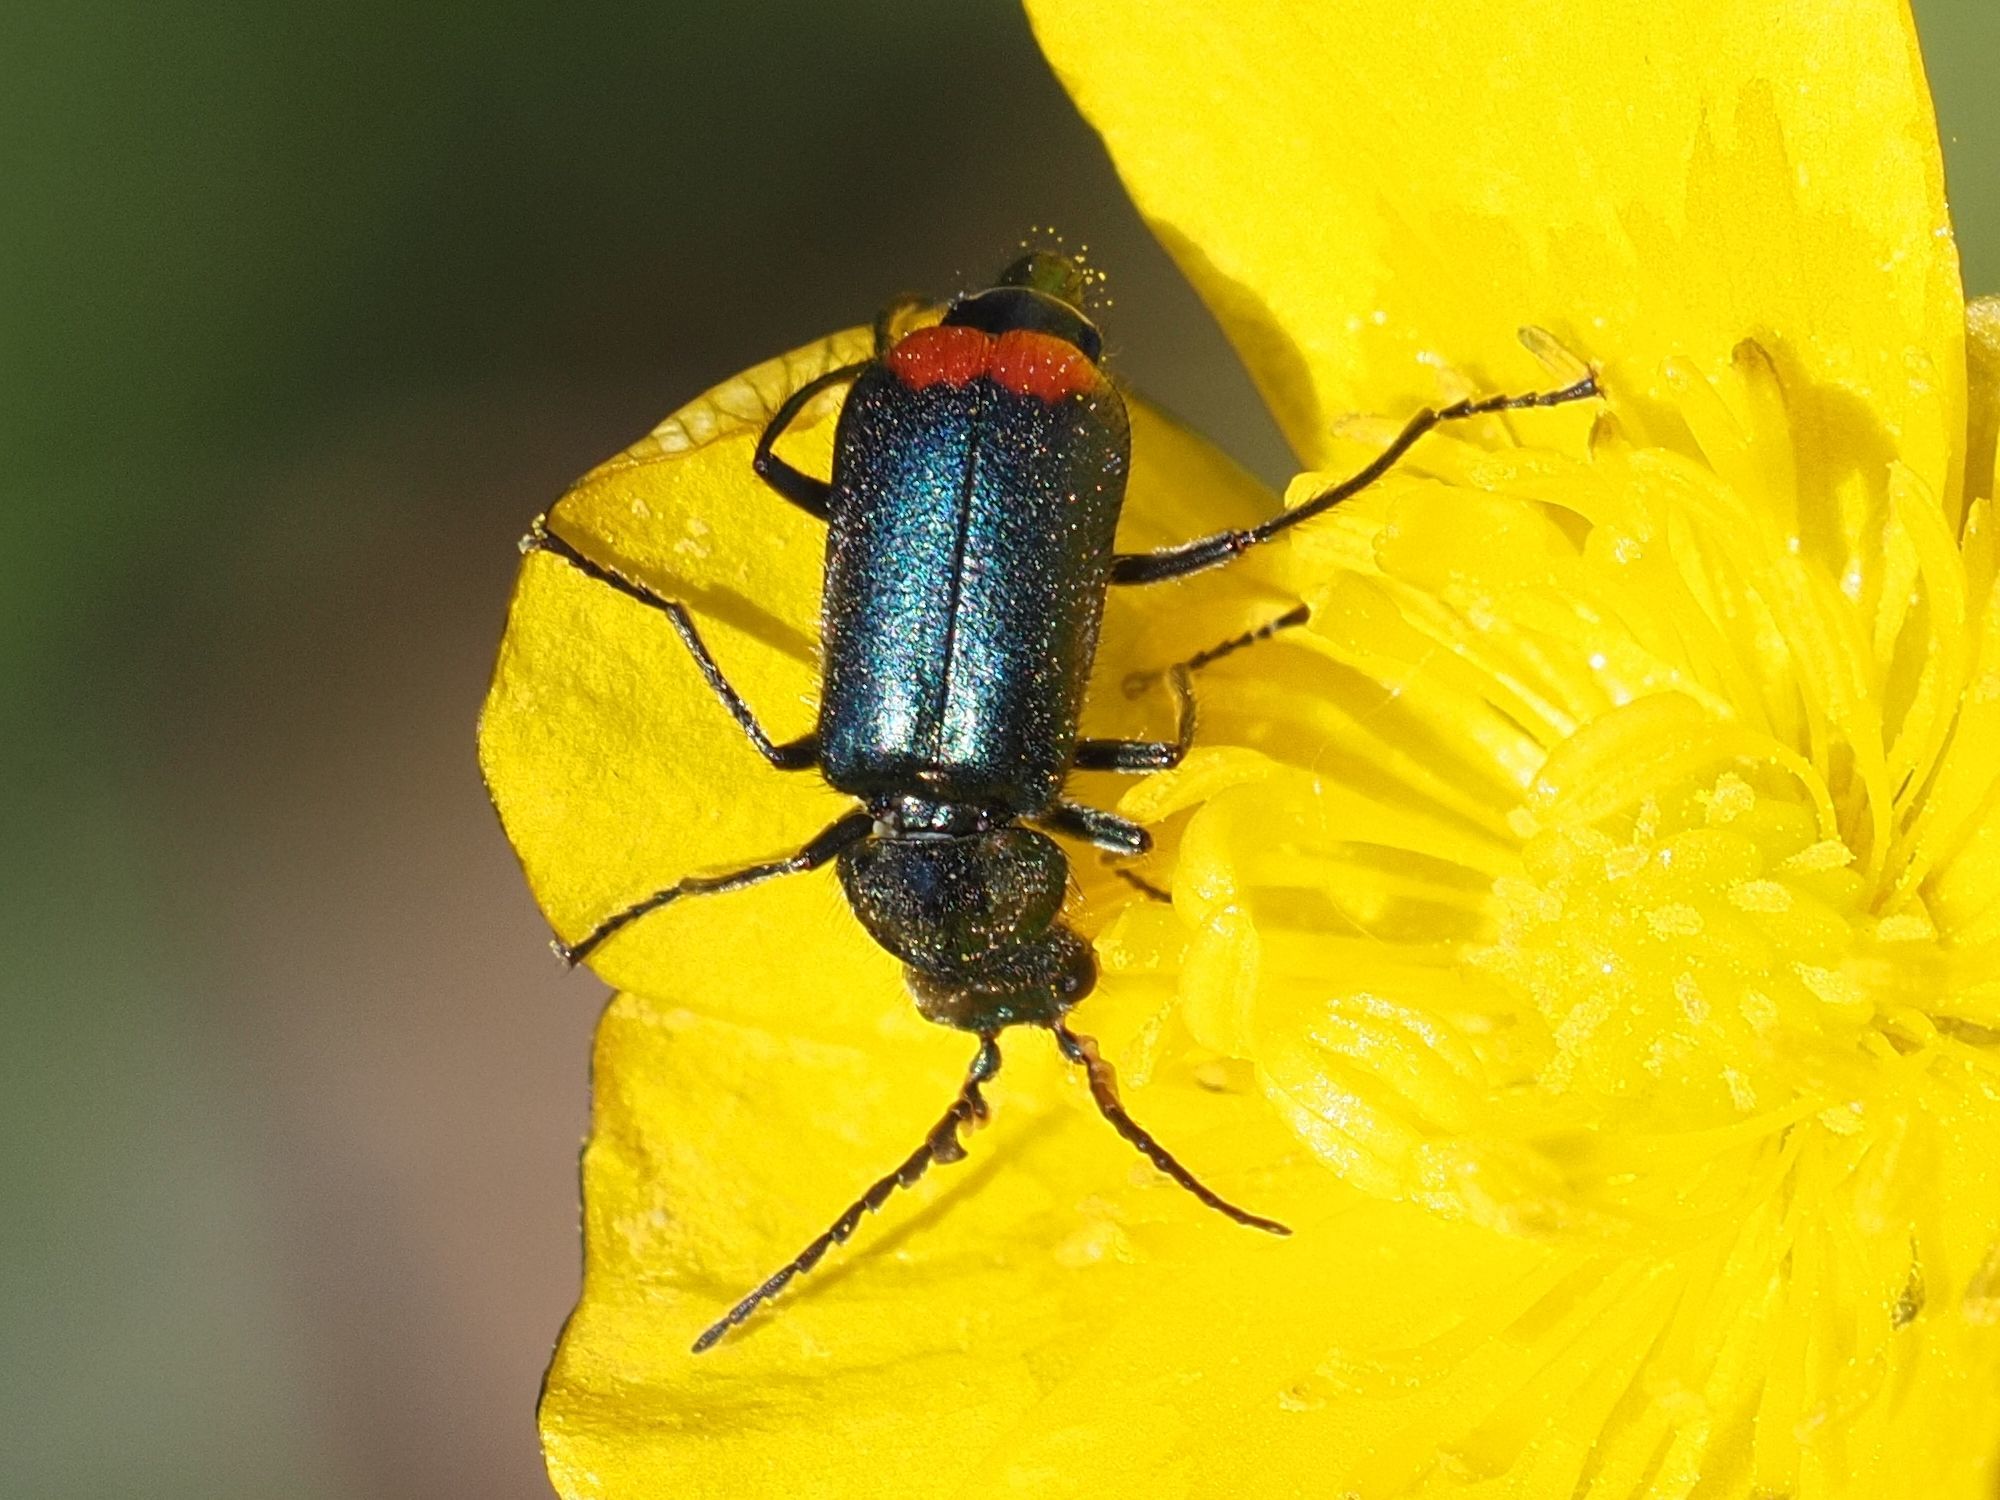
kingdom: Animalia
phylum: Arthropoda
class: Insecta
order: Coleoptera
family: Melyridae
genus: Malachius
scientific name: Malachius bipustulatus
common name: Malachite beetle
